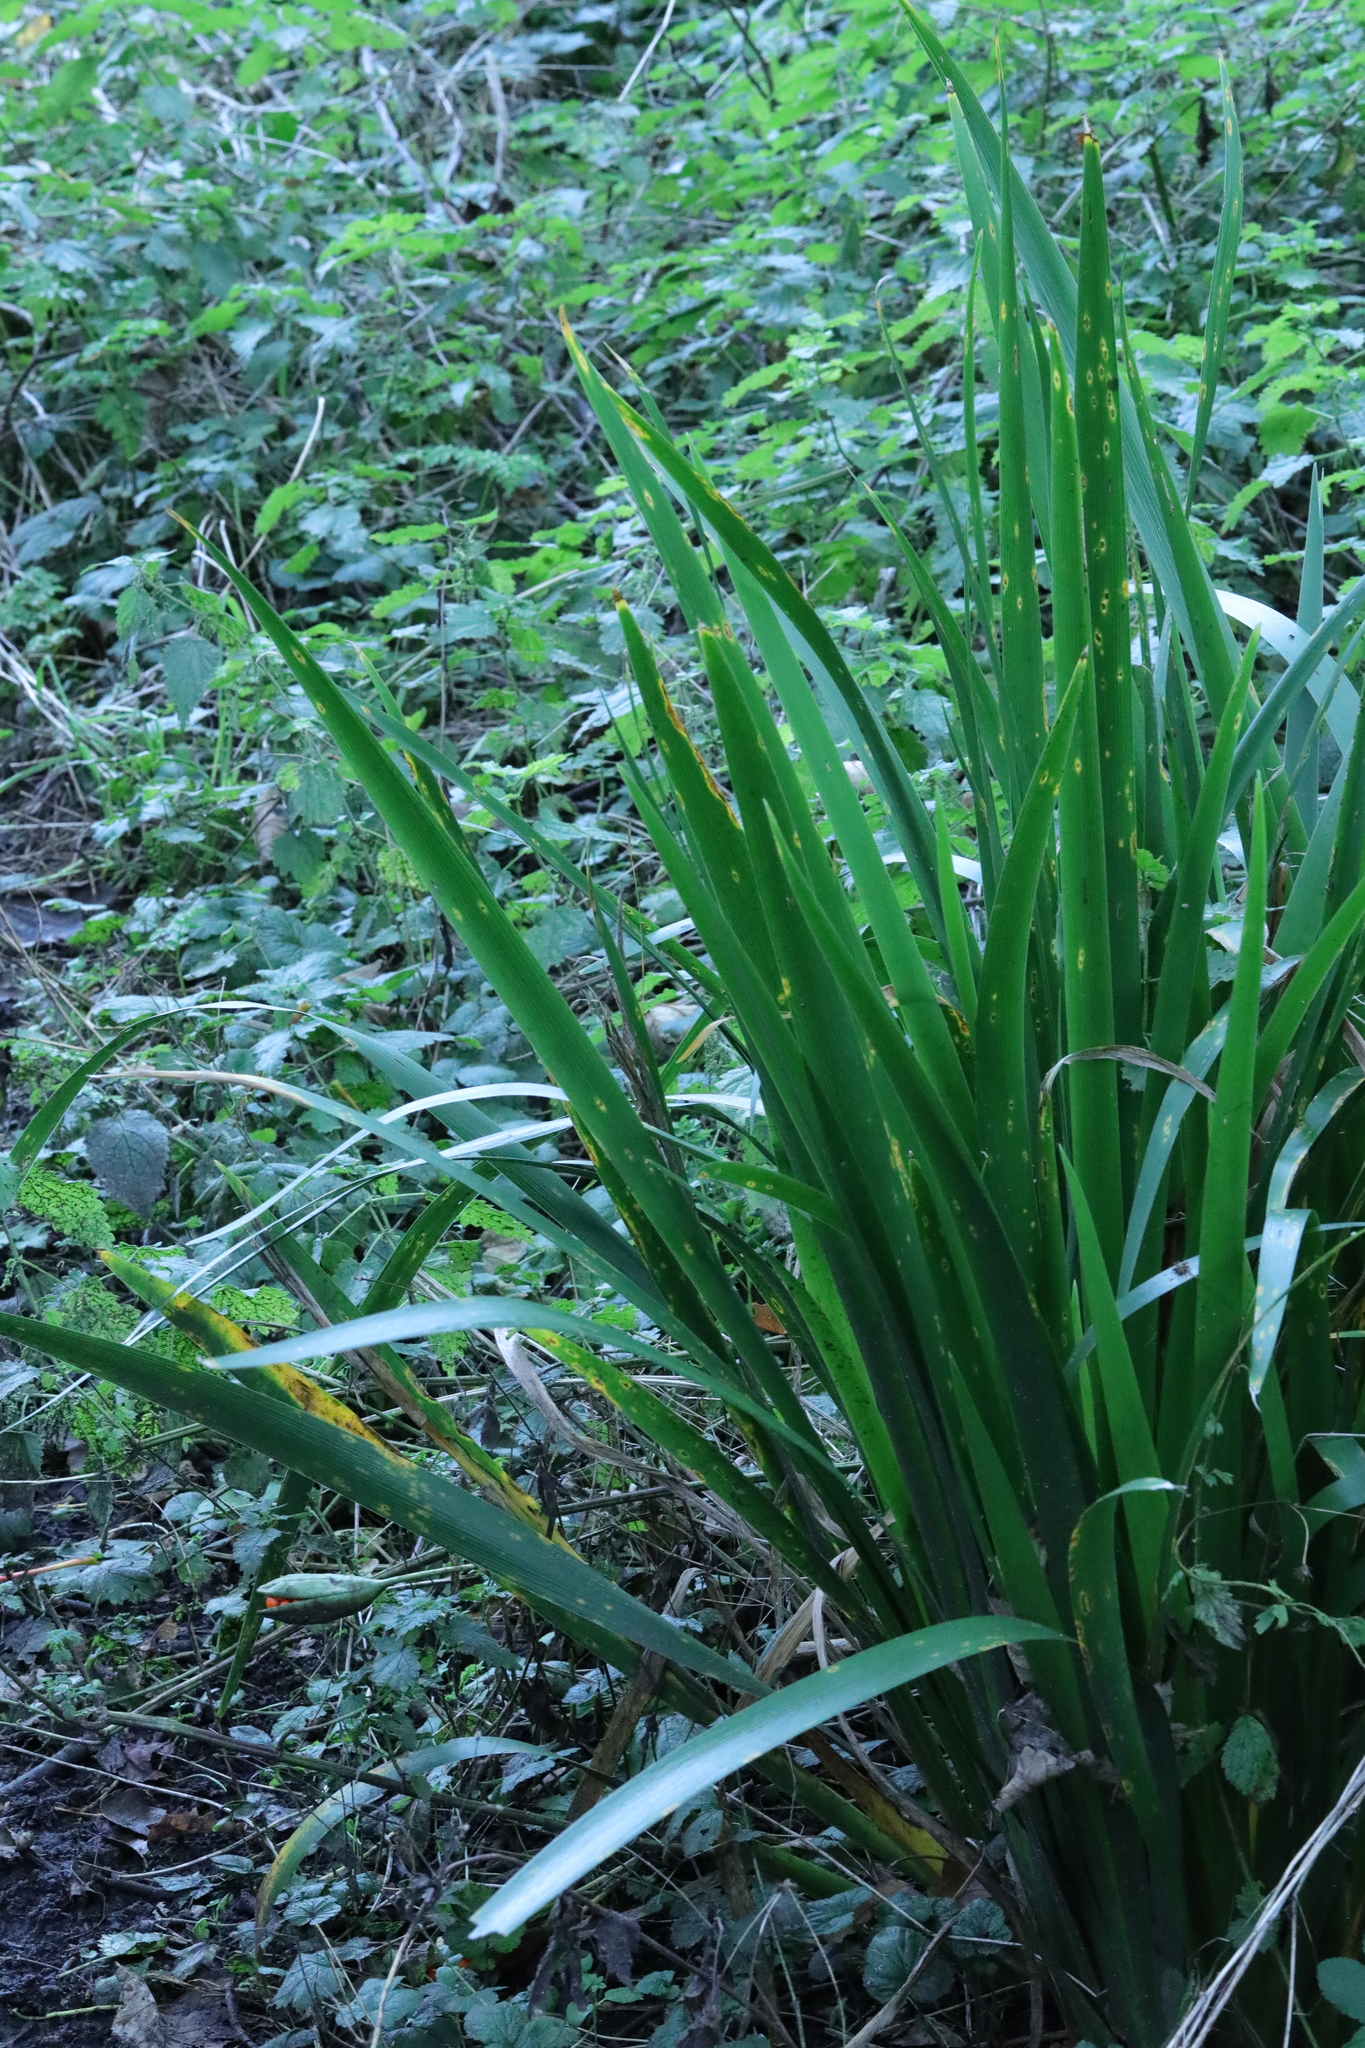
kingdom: Plantae
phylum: Tracheophyta
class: Liliopsida
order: Asparagales
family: Iridaceae
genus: Iris
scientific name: Iris foetidissima
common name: Stinking iris
